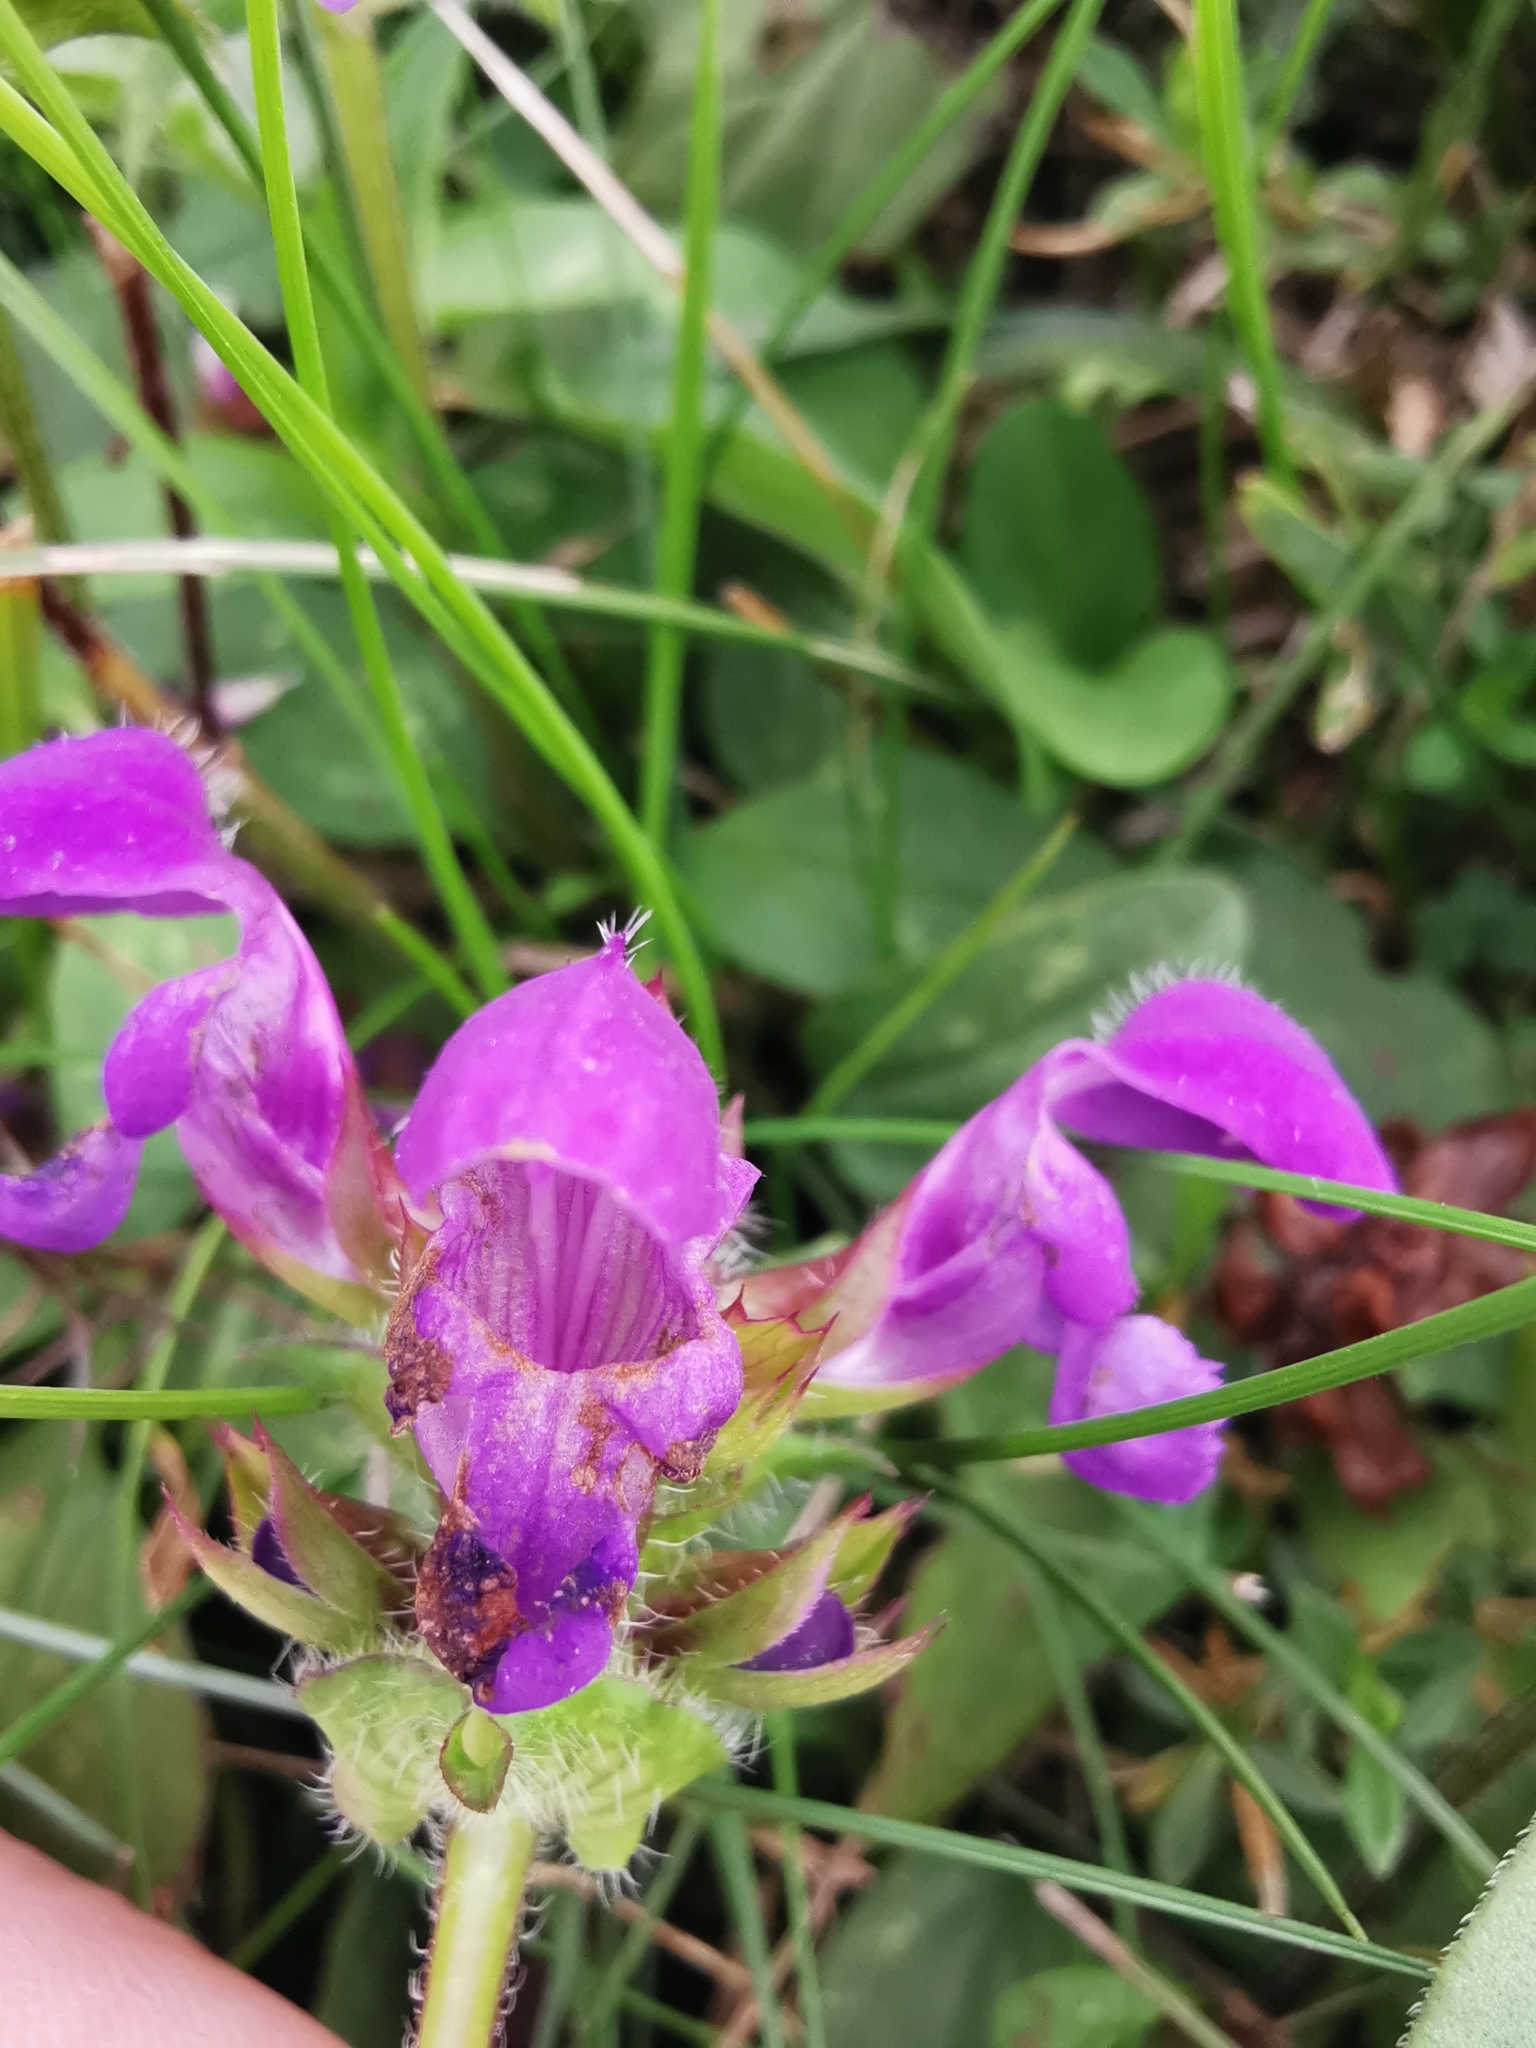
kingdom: Plantae
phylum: Tracheophyta
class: Magnoliopsida
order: Lamiales
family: Lamiaceae
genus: Prunella
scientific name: Prunella grandiflora
